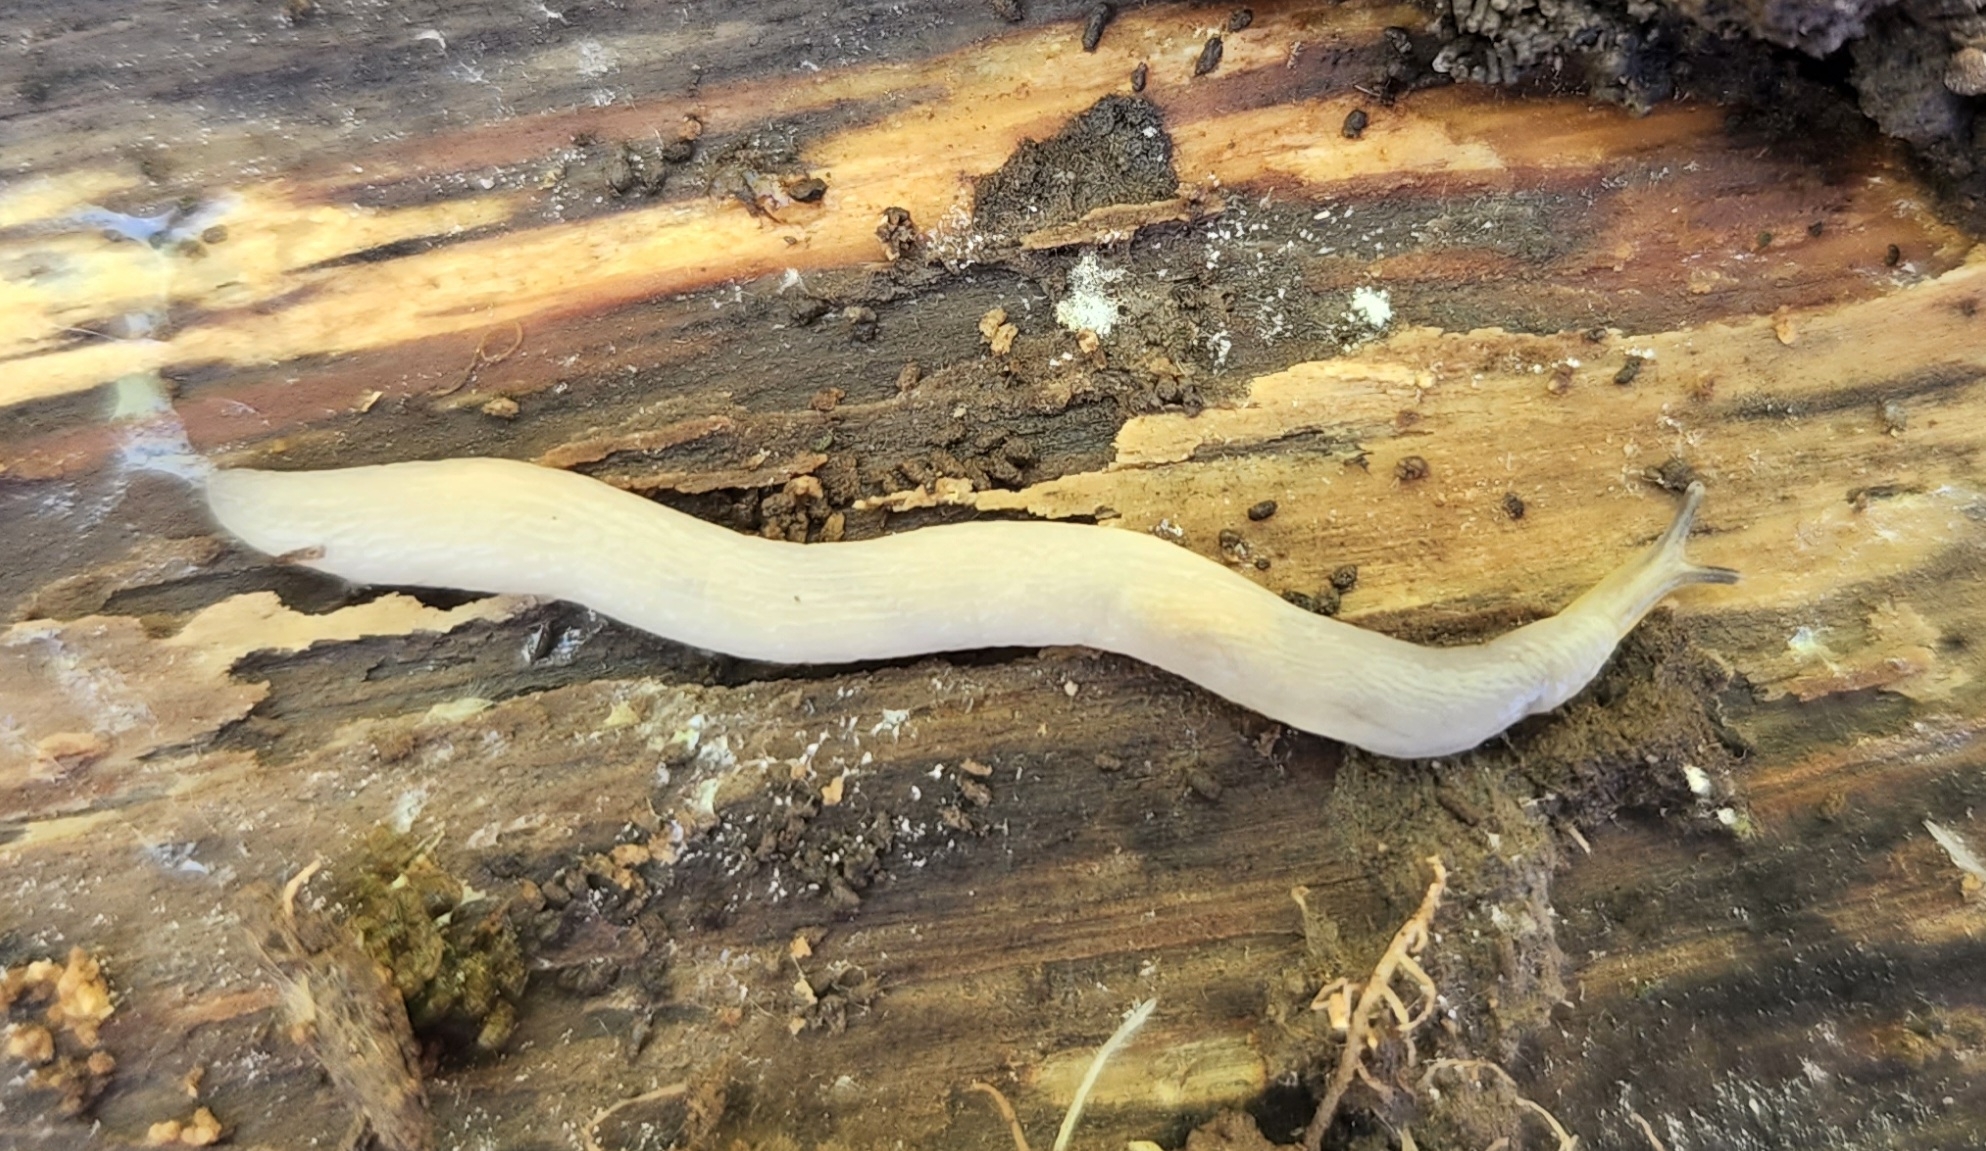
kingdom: Animalia
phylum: Mollusca
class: Gastropoda
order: Stylommatophora
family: Boettgerillidae
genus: Boettgerilla
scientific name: Boettgerilla pallens
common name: Worm slug
